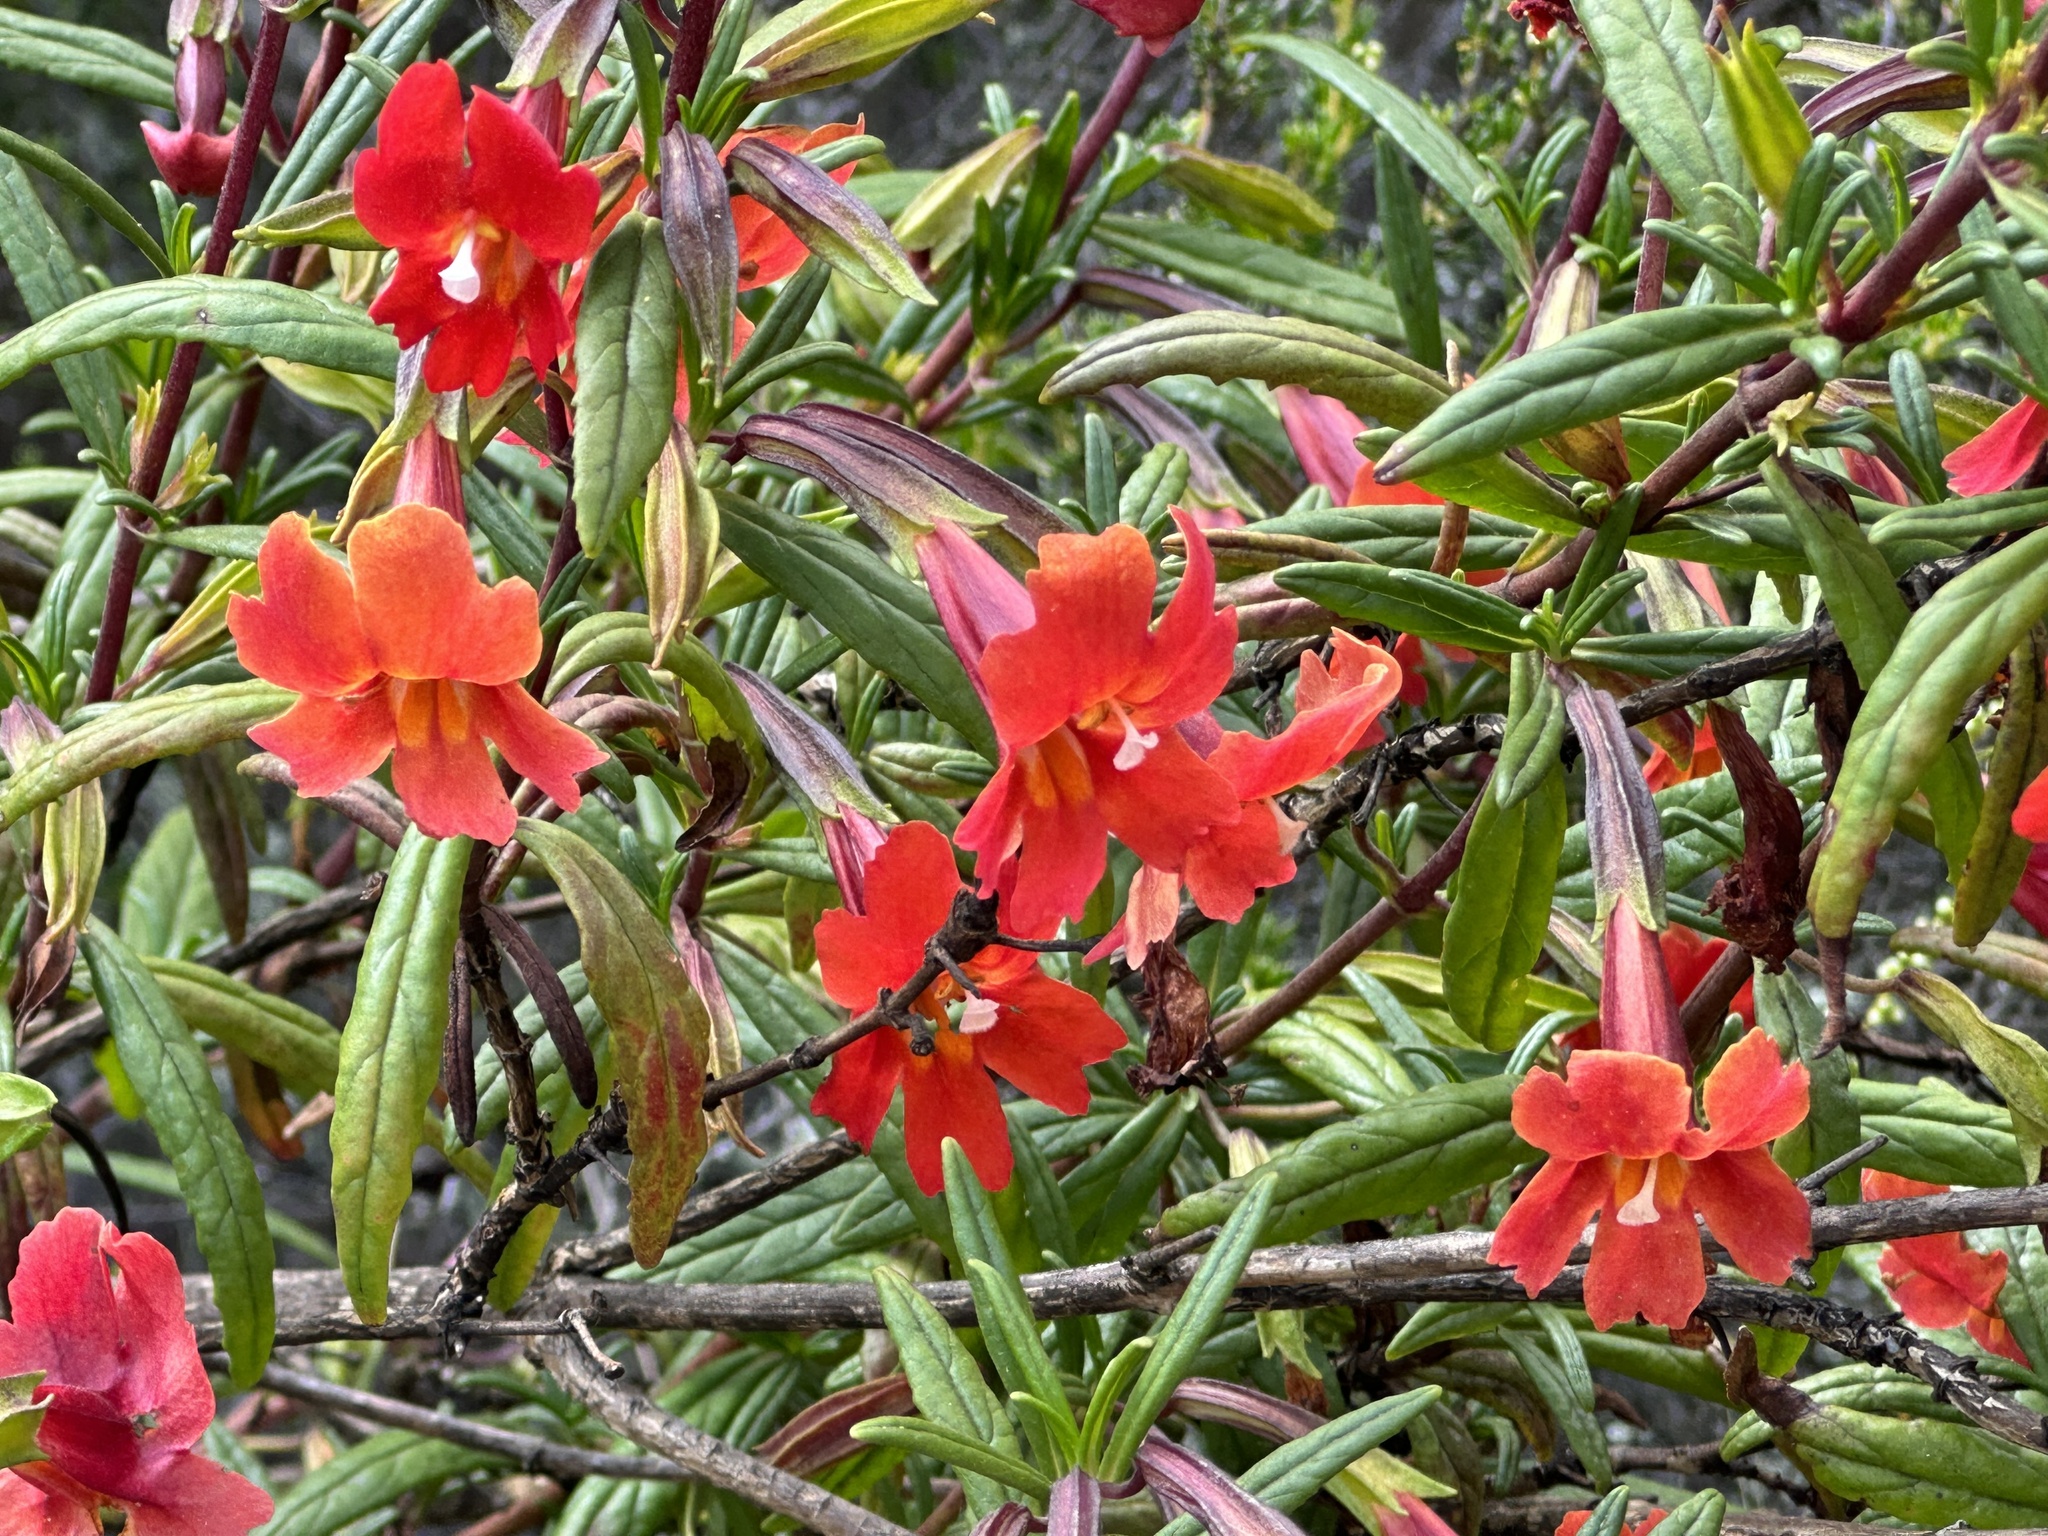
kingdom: Plantae
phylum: Tracheophyta
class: Magnoliopsida
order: Lamiales
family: Phrymaceae
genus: Diplacus
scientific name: Diplacus puniceus
